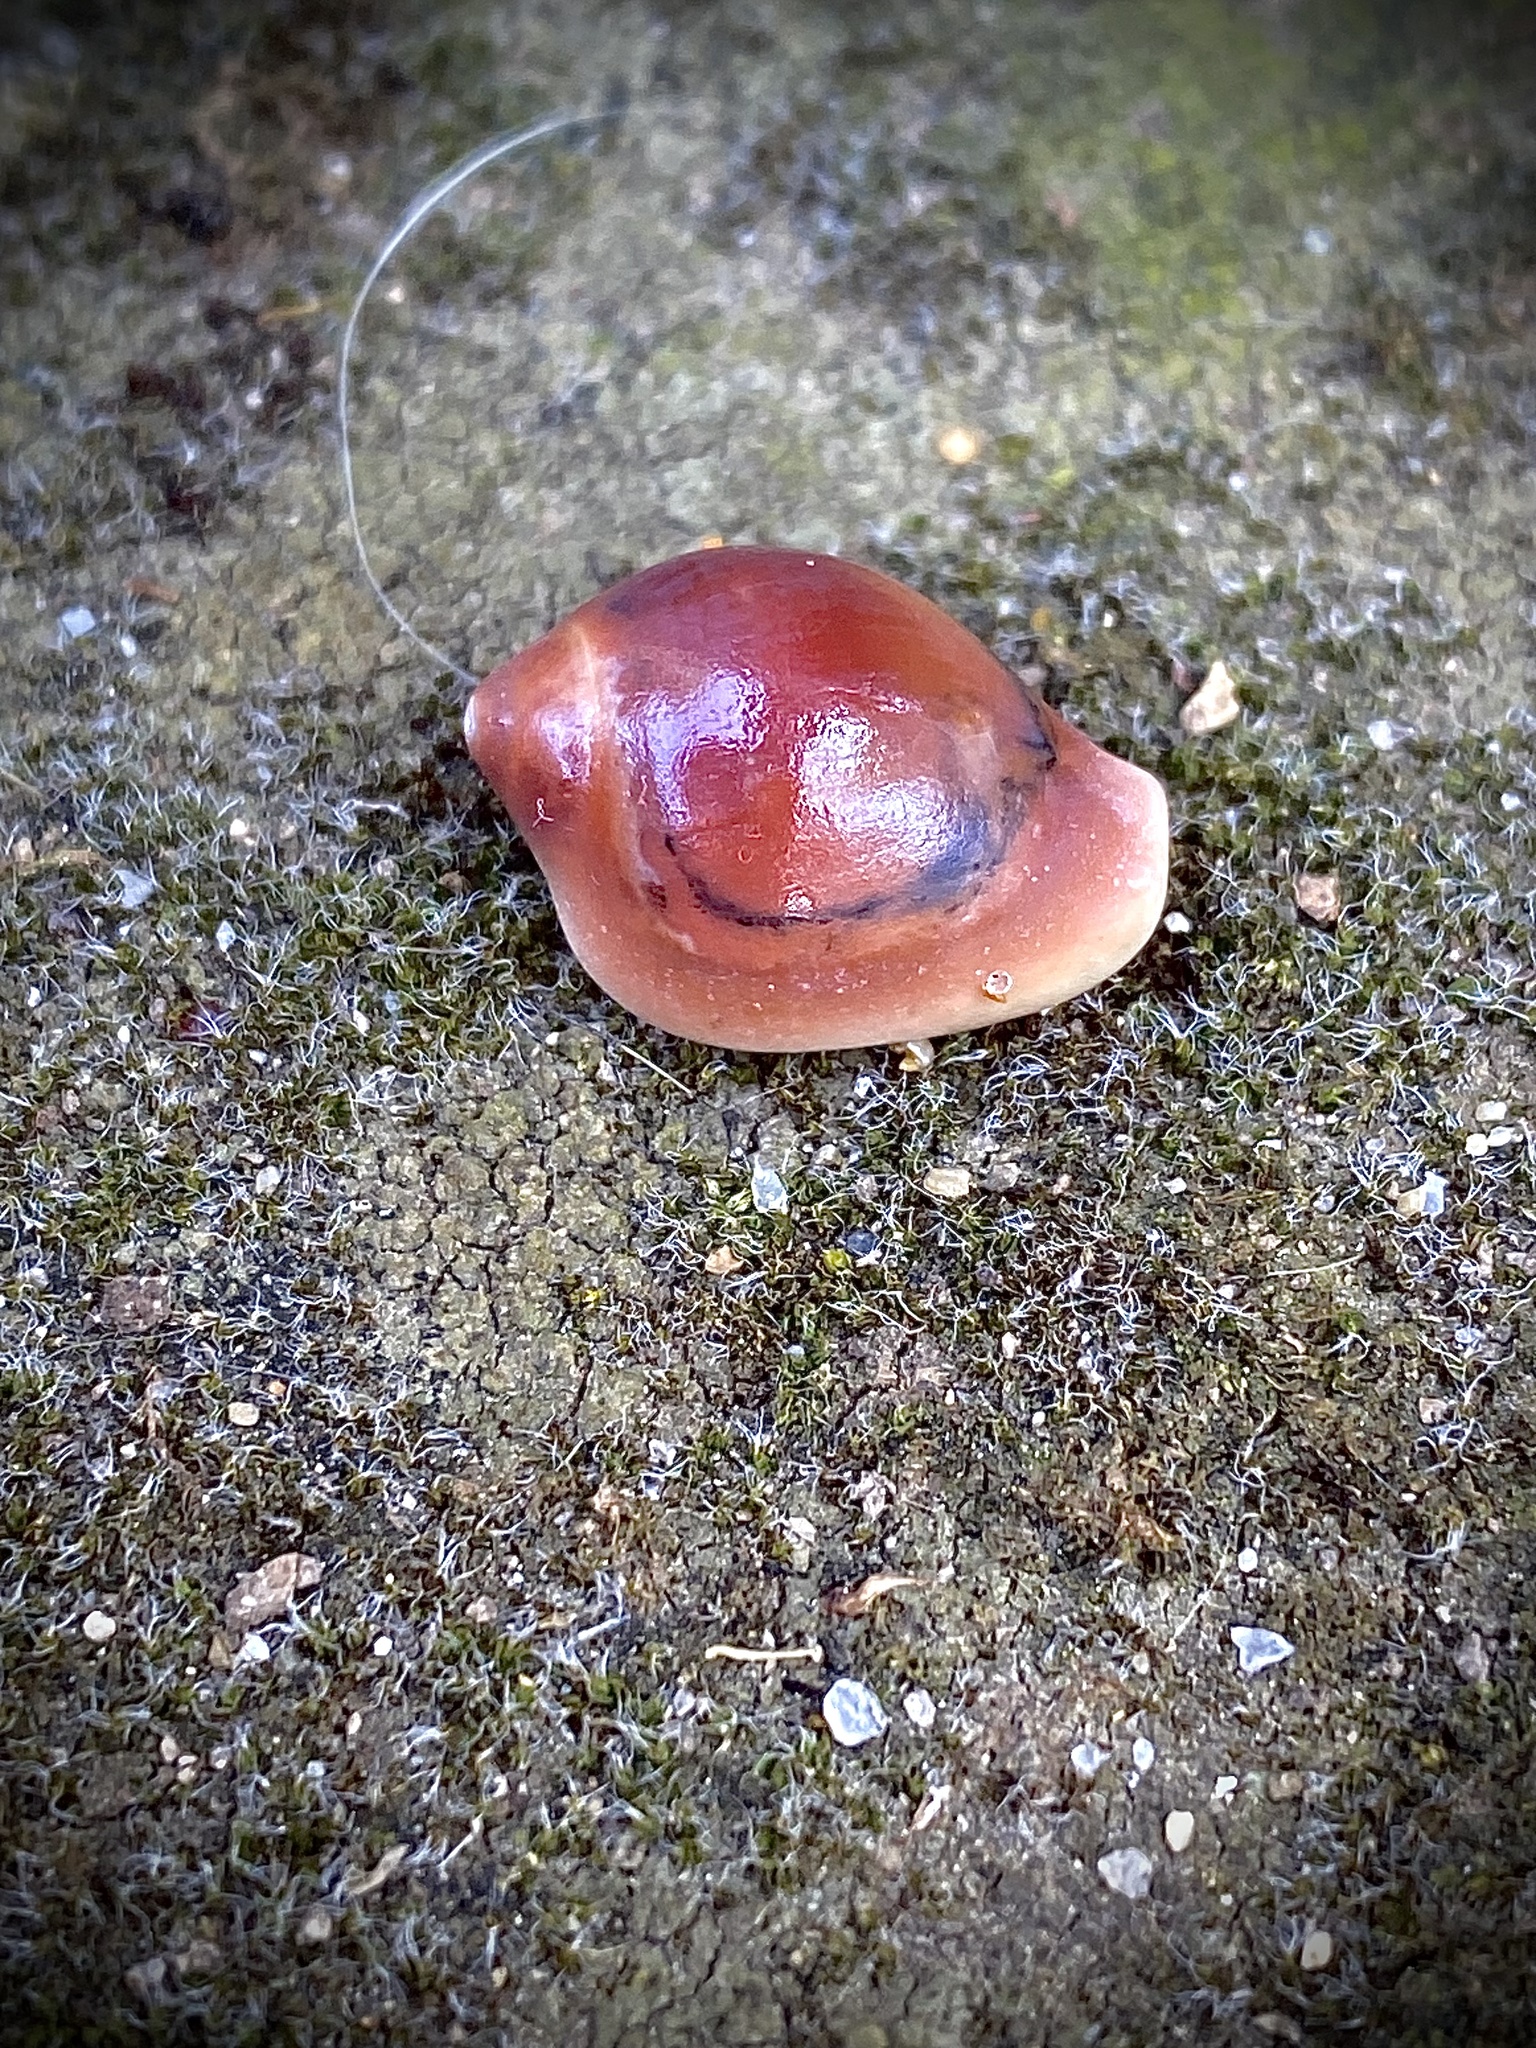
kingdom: Animalia
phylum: Mollusca
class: Gastropoda
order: Littorinimorpha
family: Eratoidae
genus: Hespererato
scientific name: Hespererato vitellina
